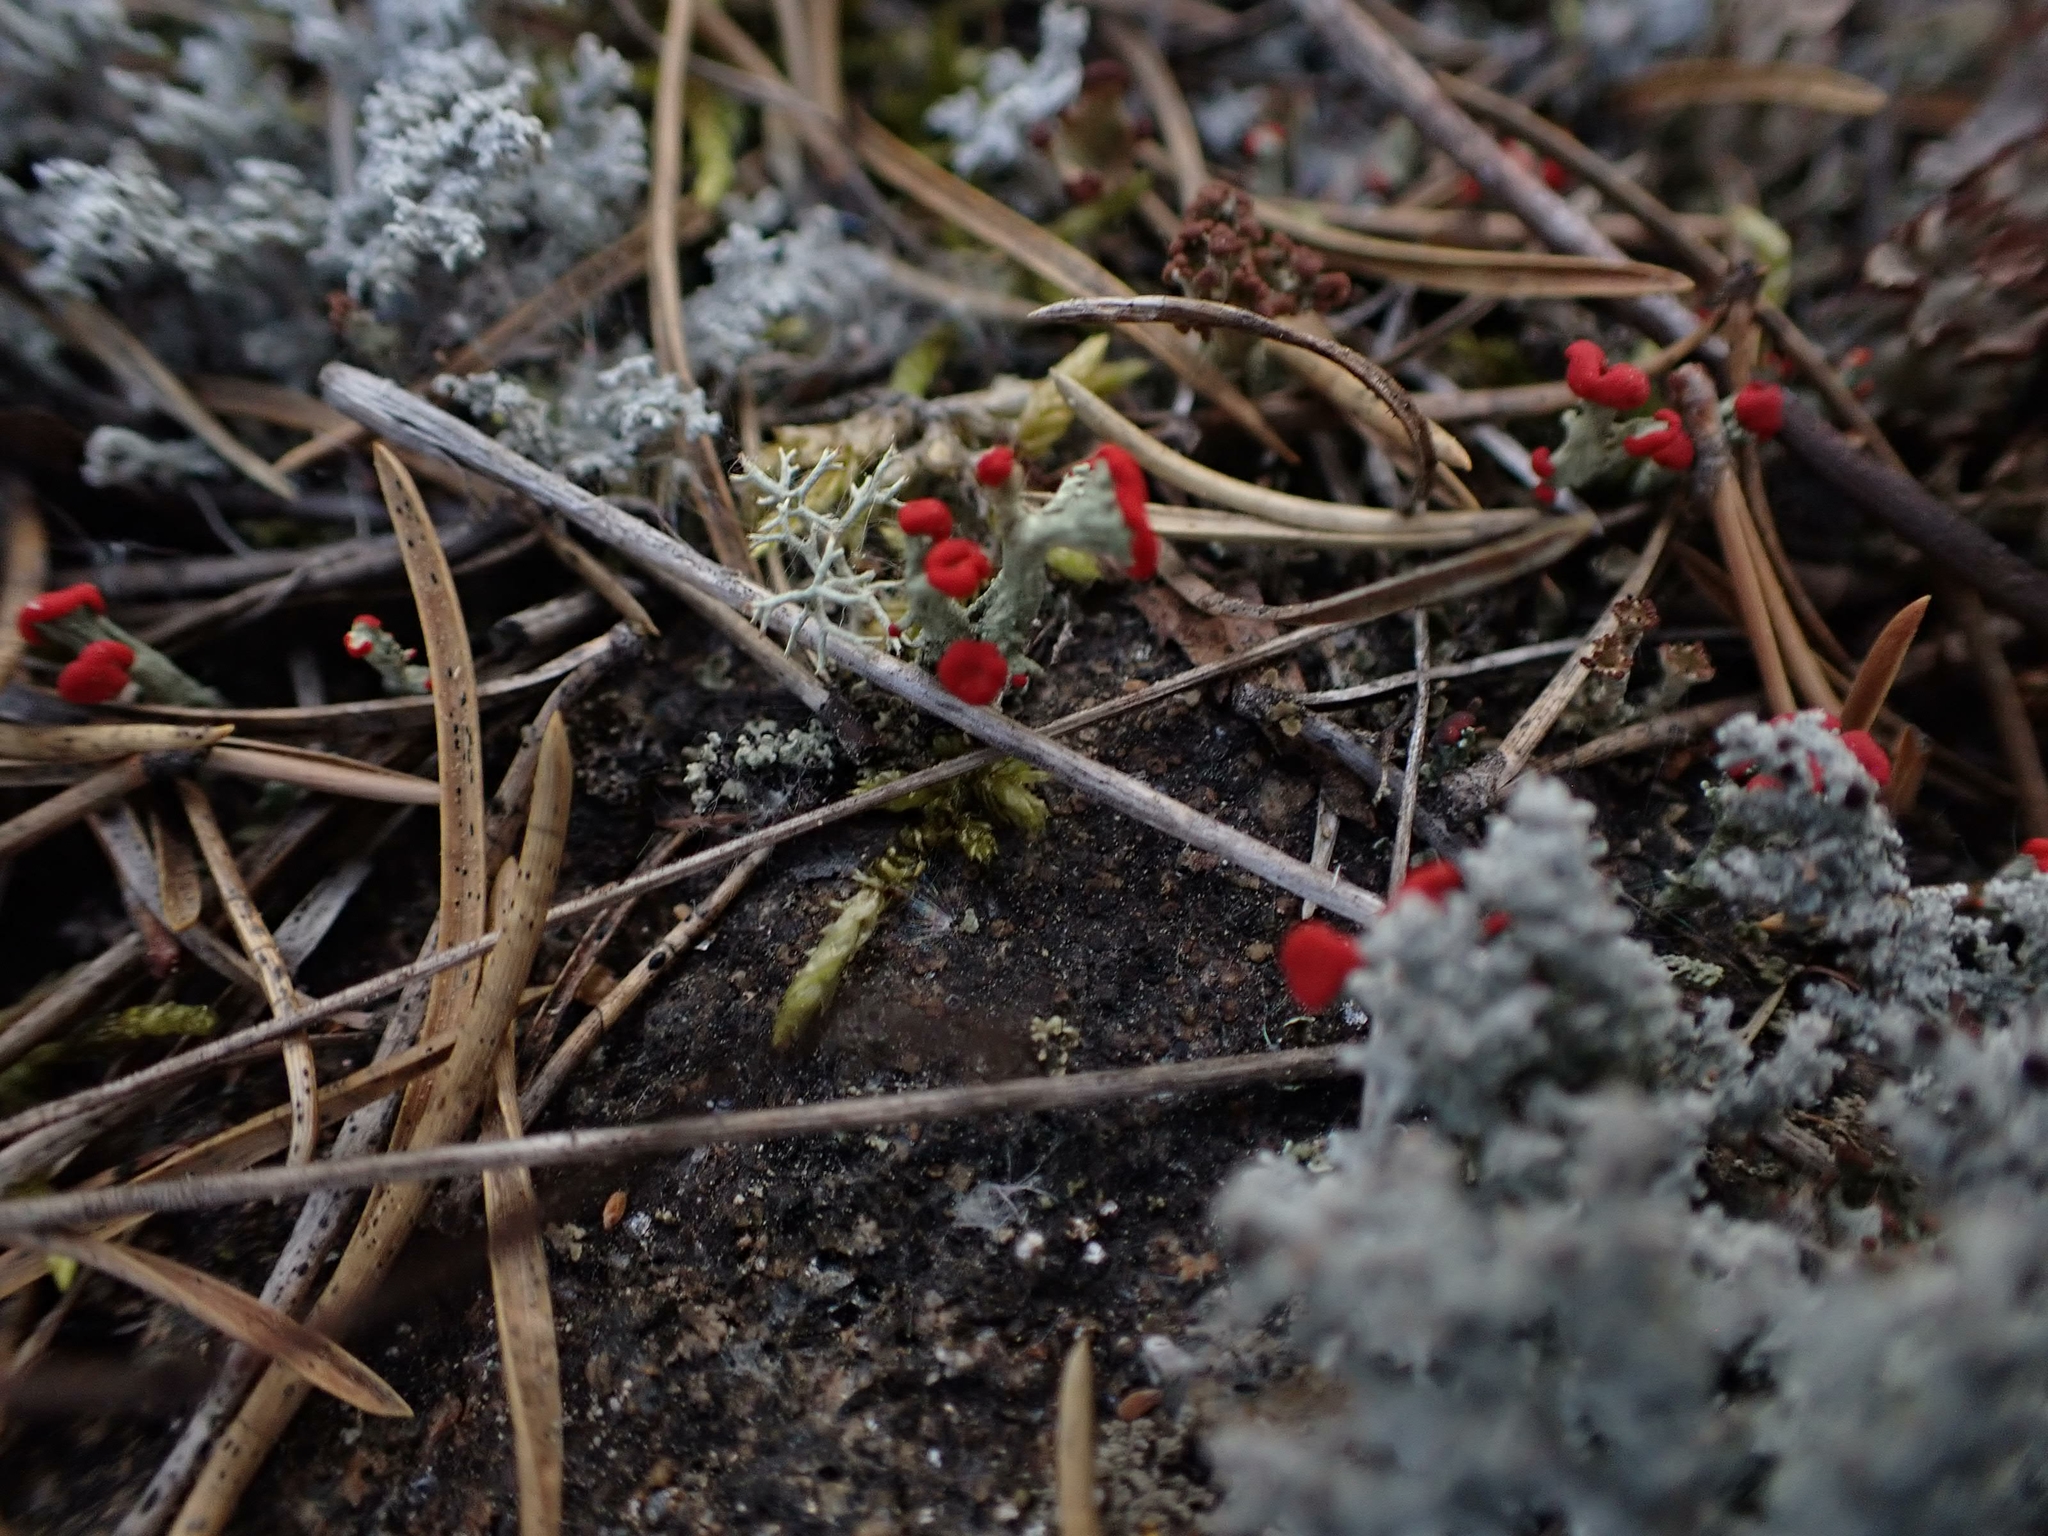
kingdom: Fungi
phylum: Ascomycota
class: Lecanoromycetes
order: Lecanorales
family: Cladoniaceae
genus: Cladonia
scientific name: Cladonia cristatella
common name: British soldier lichen
